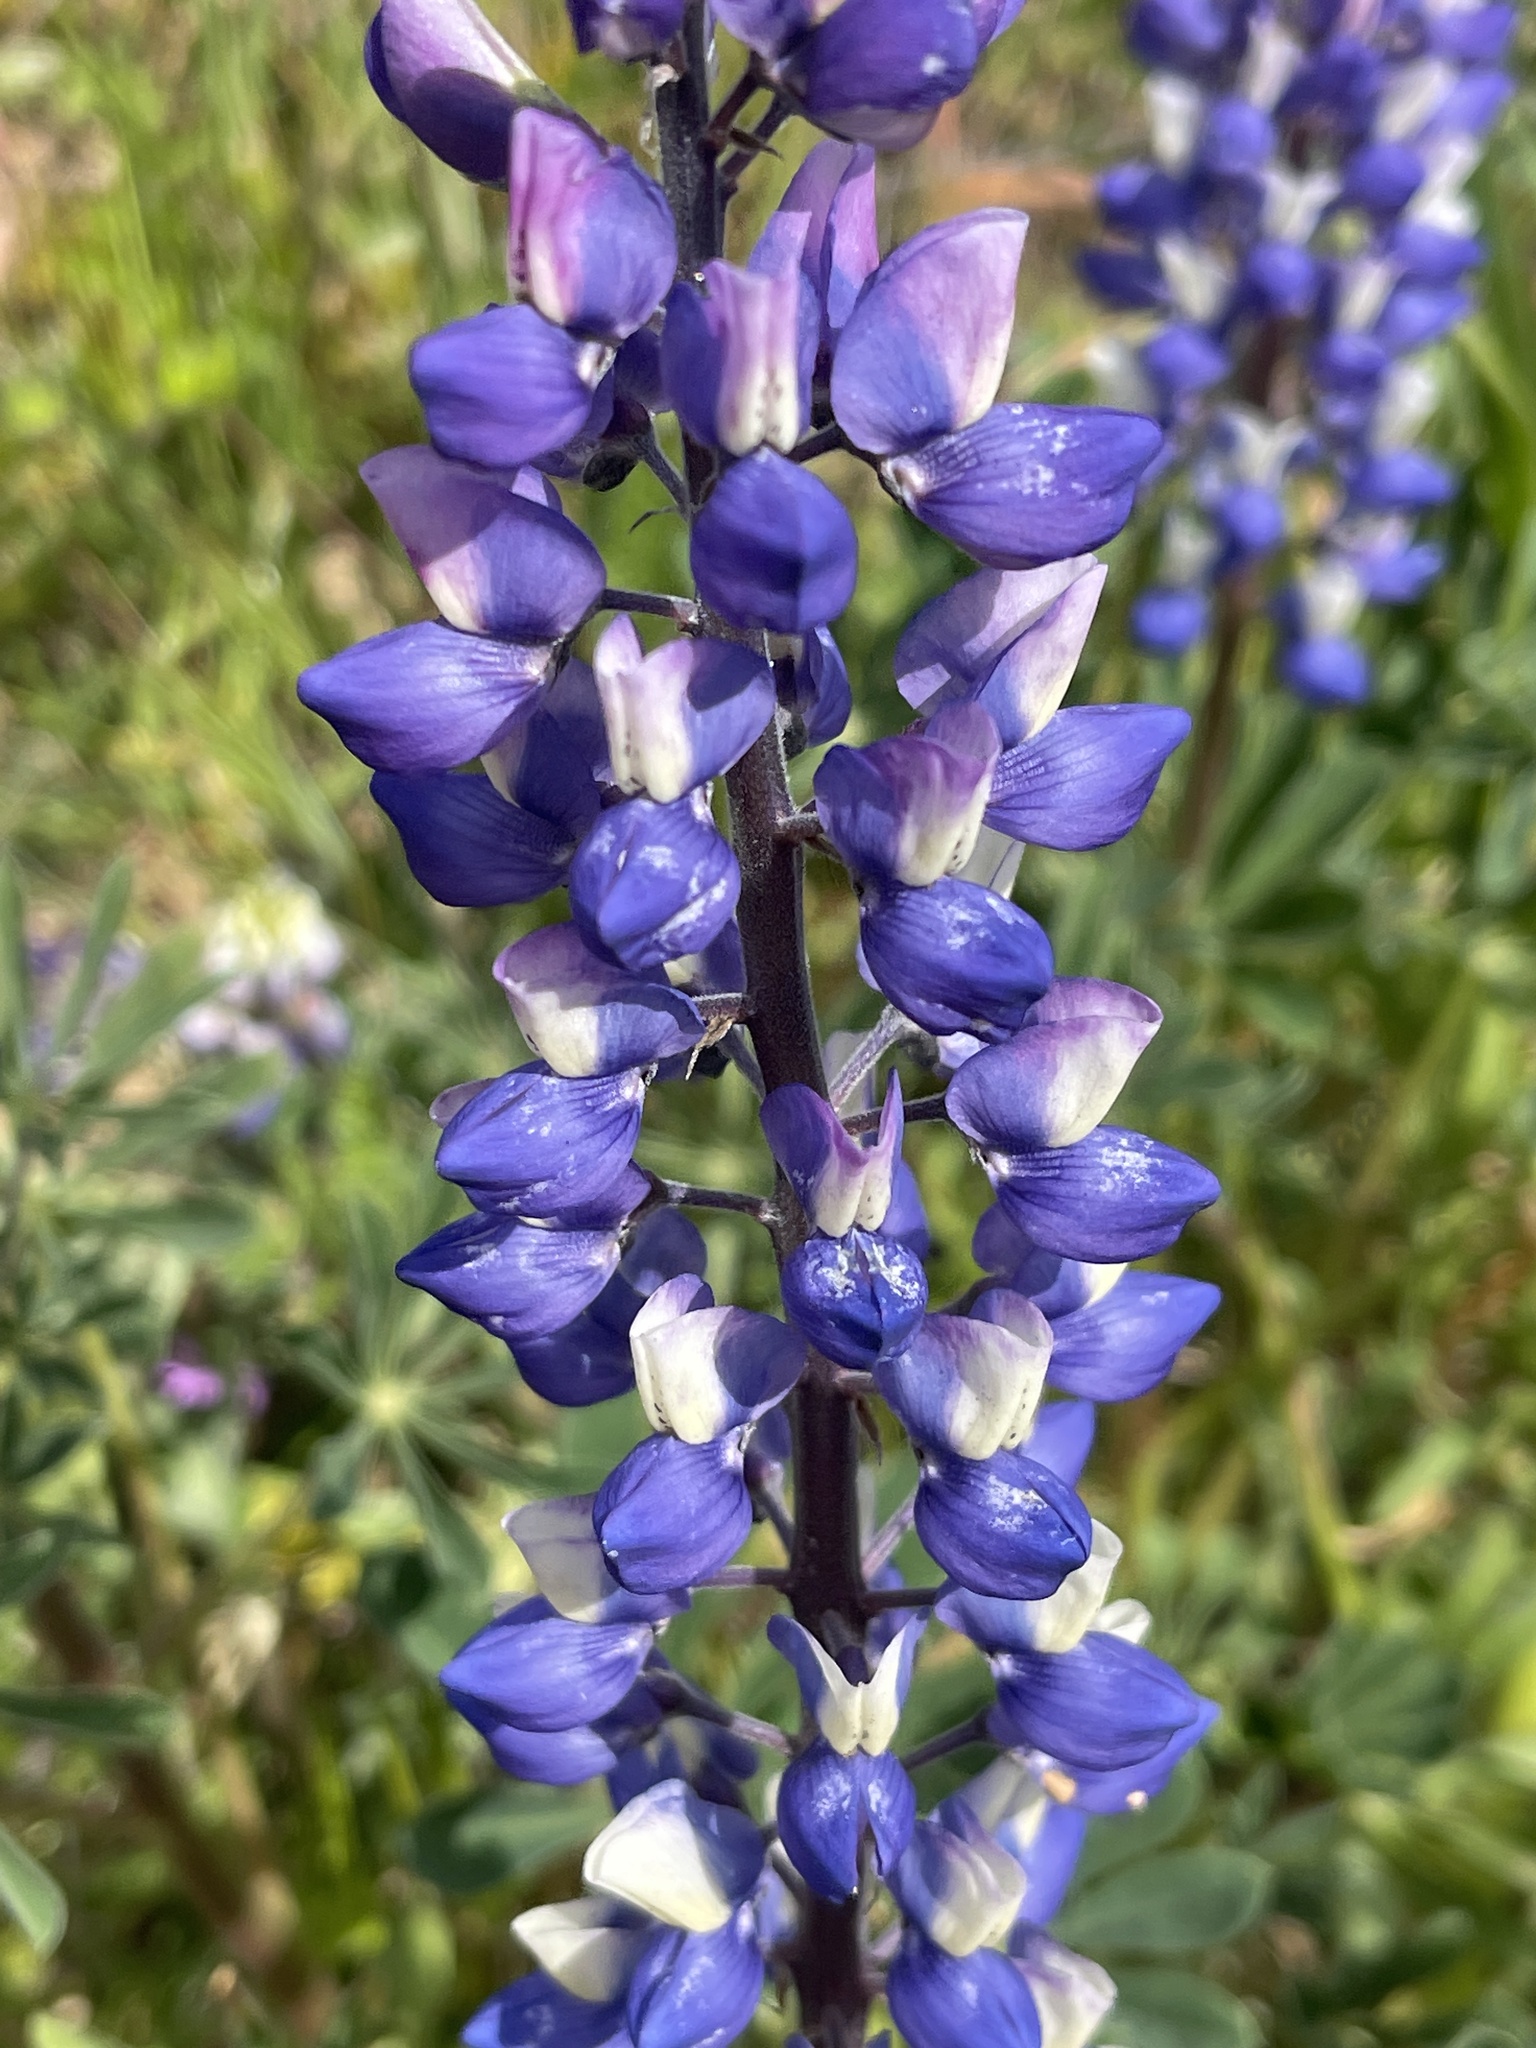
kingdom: Plantae
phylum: Tracheophyta
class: Magnoliopsida
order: Fabales
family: Fabaceae
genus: Lupinus
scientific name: Lupinus succulentus
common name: Arroyo lupine
